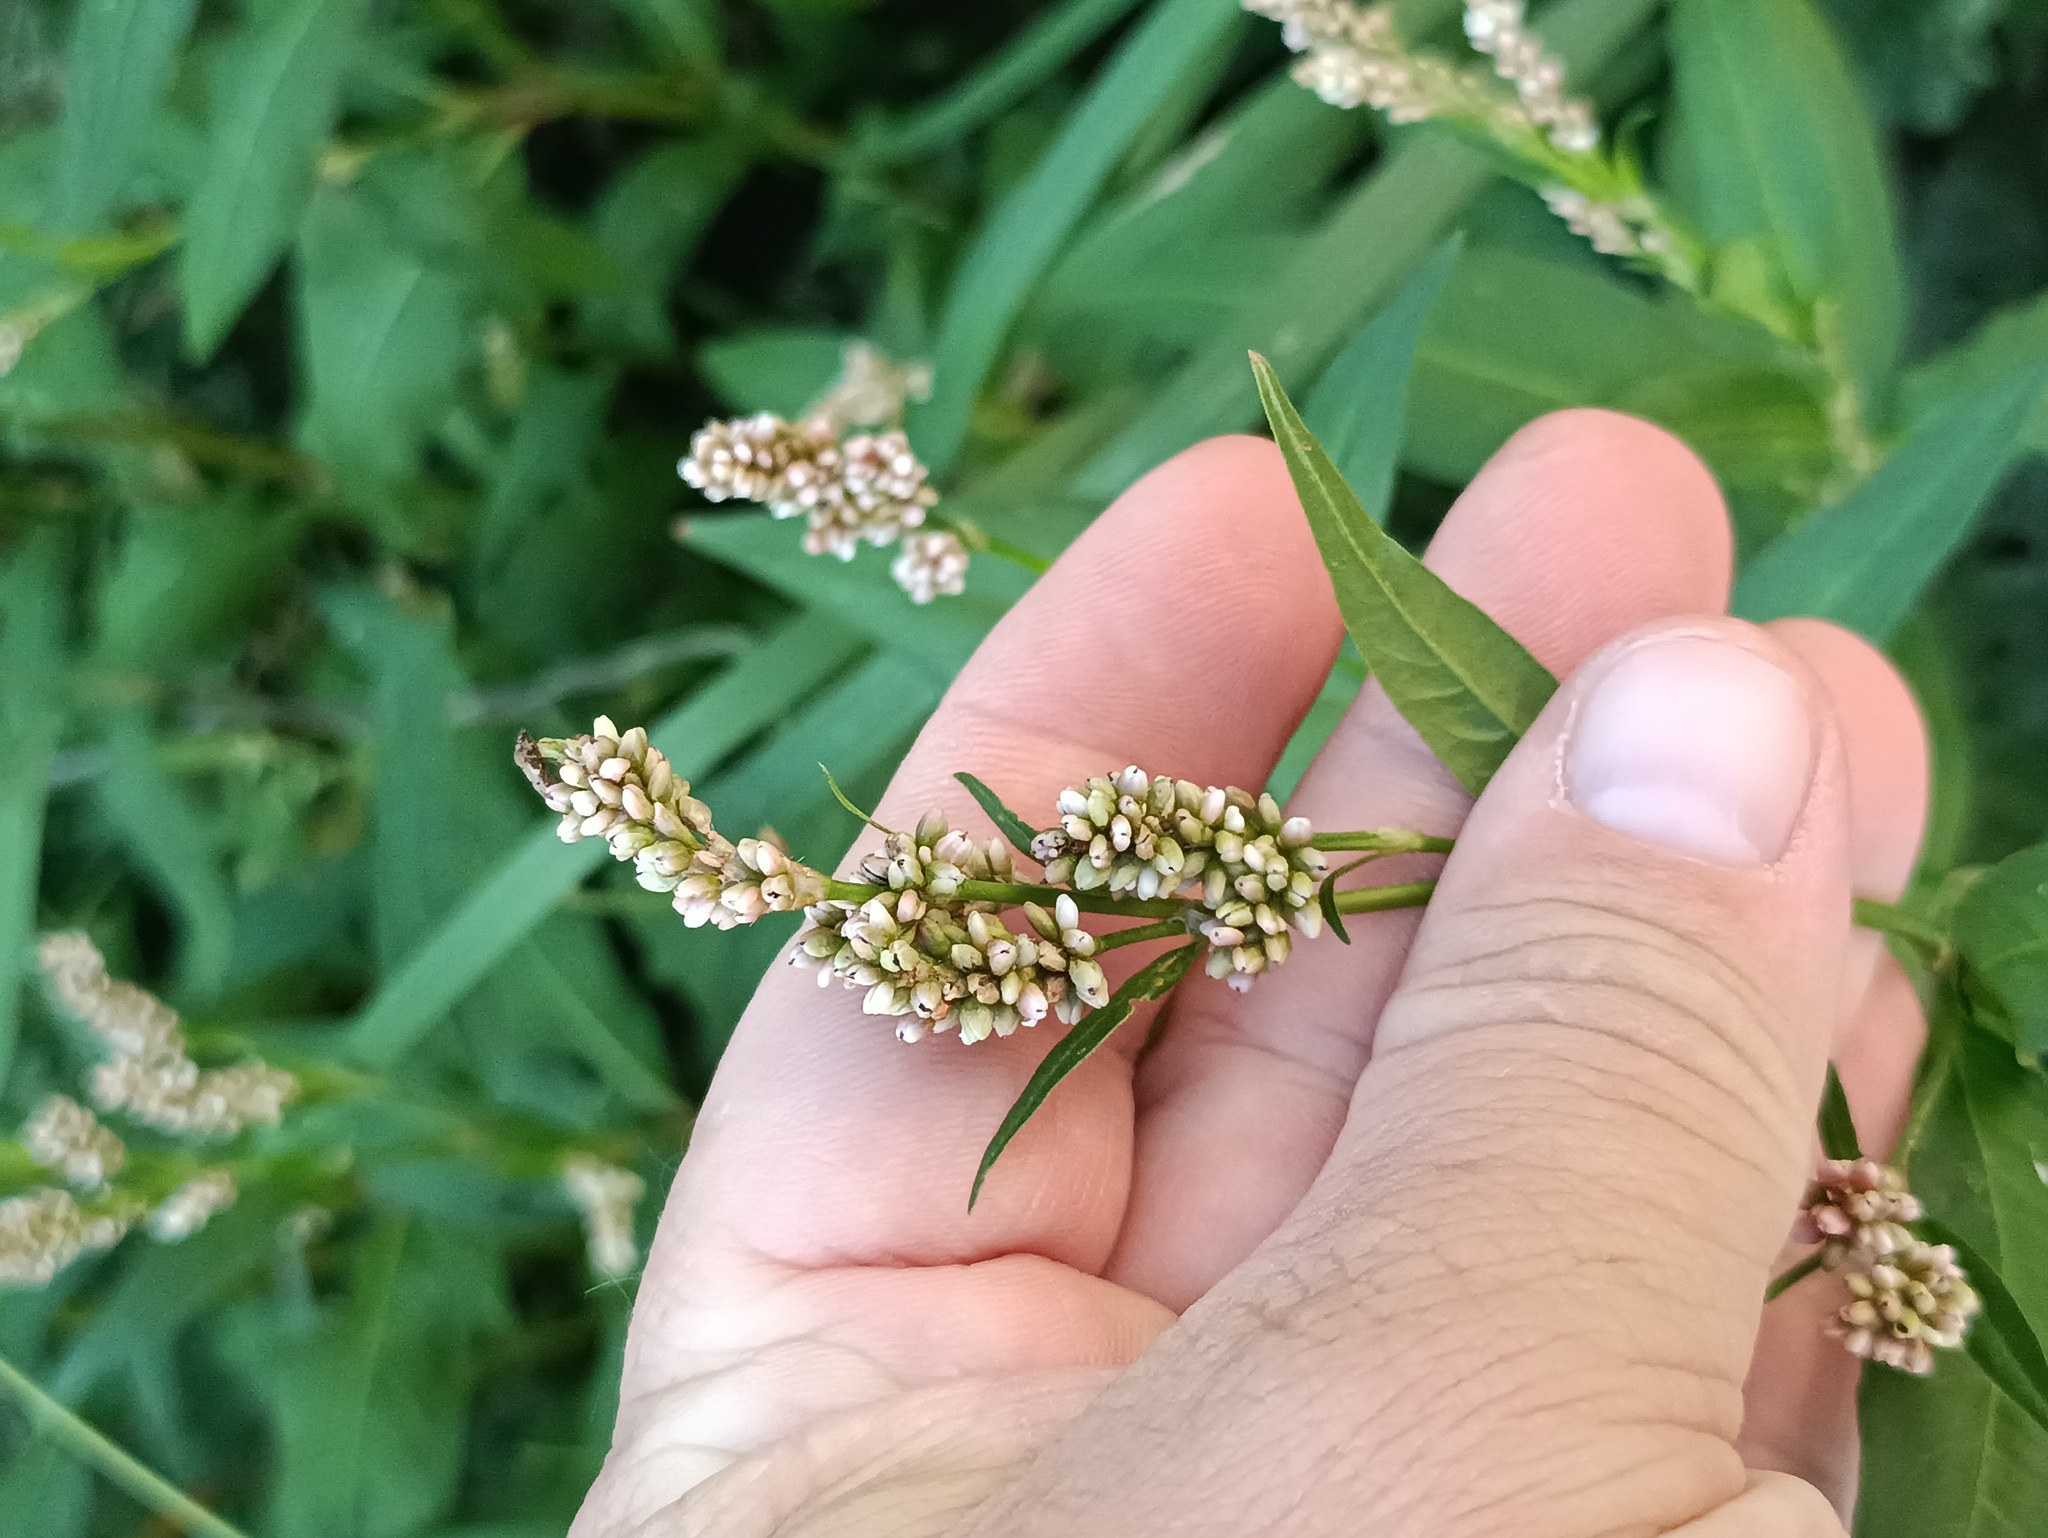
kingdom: Plantae
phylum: Tracheophyta
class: Magnoliopsida
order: Caryophyllales
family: Polygonaceae
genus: Persicaria
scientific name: Persicaria lapathifolia
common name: Curlytop knotweed
